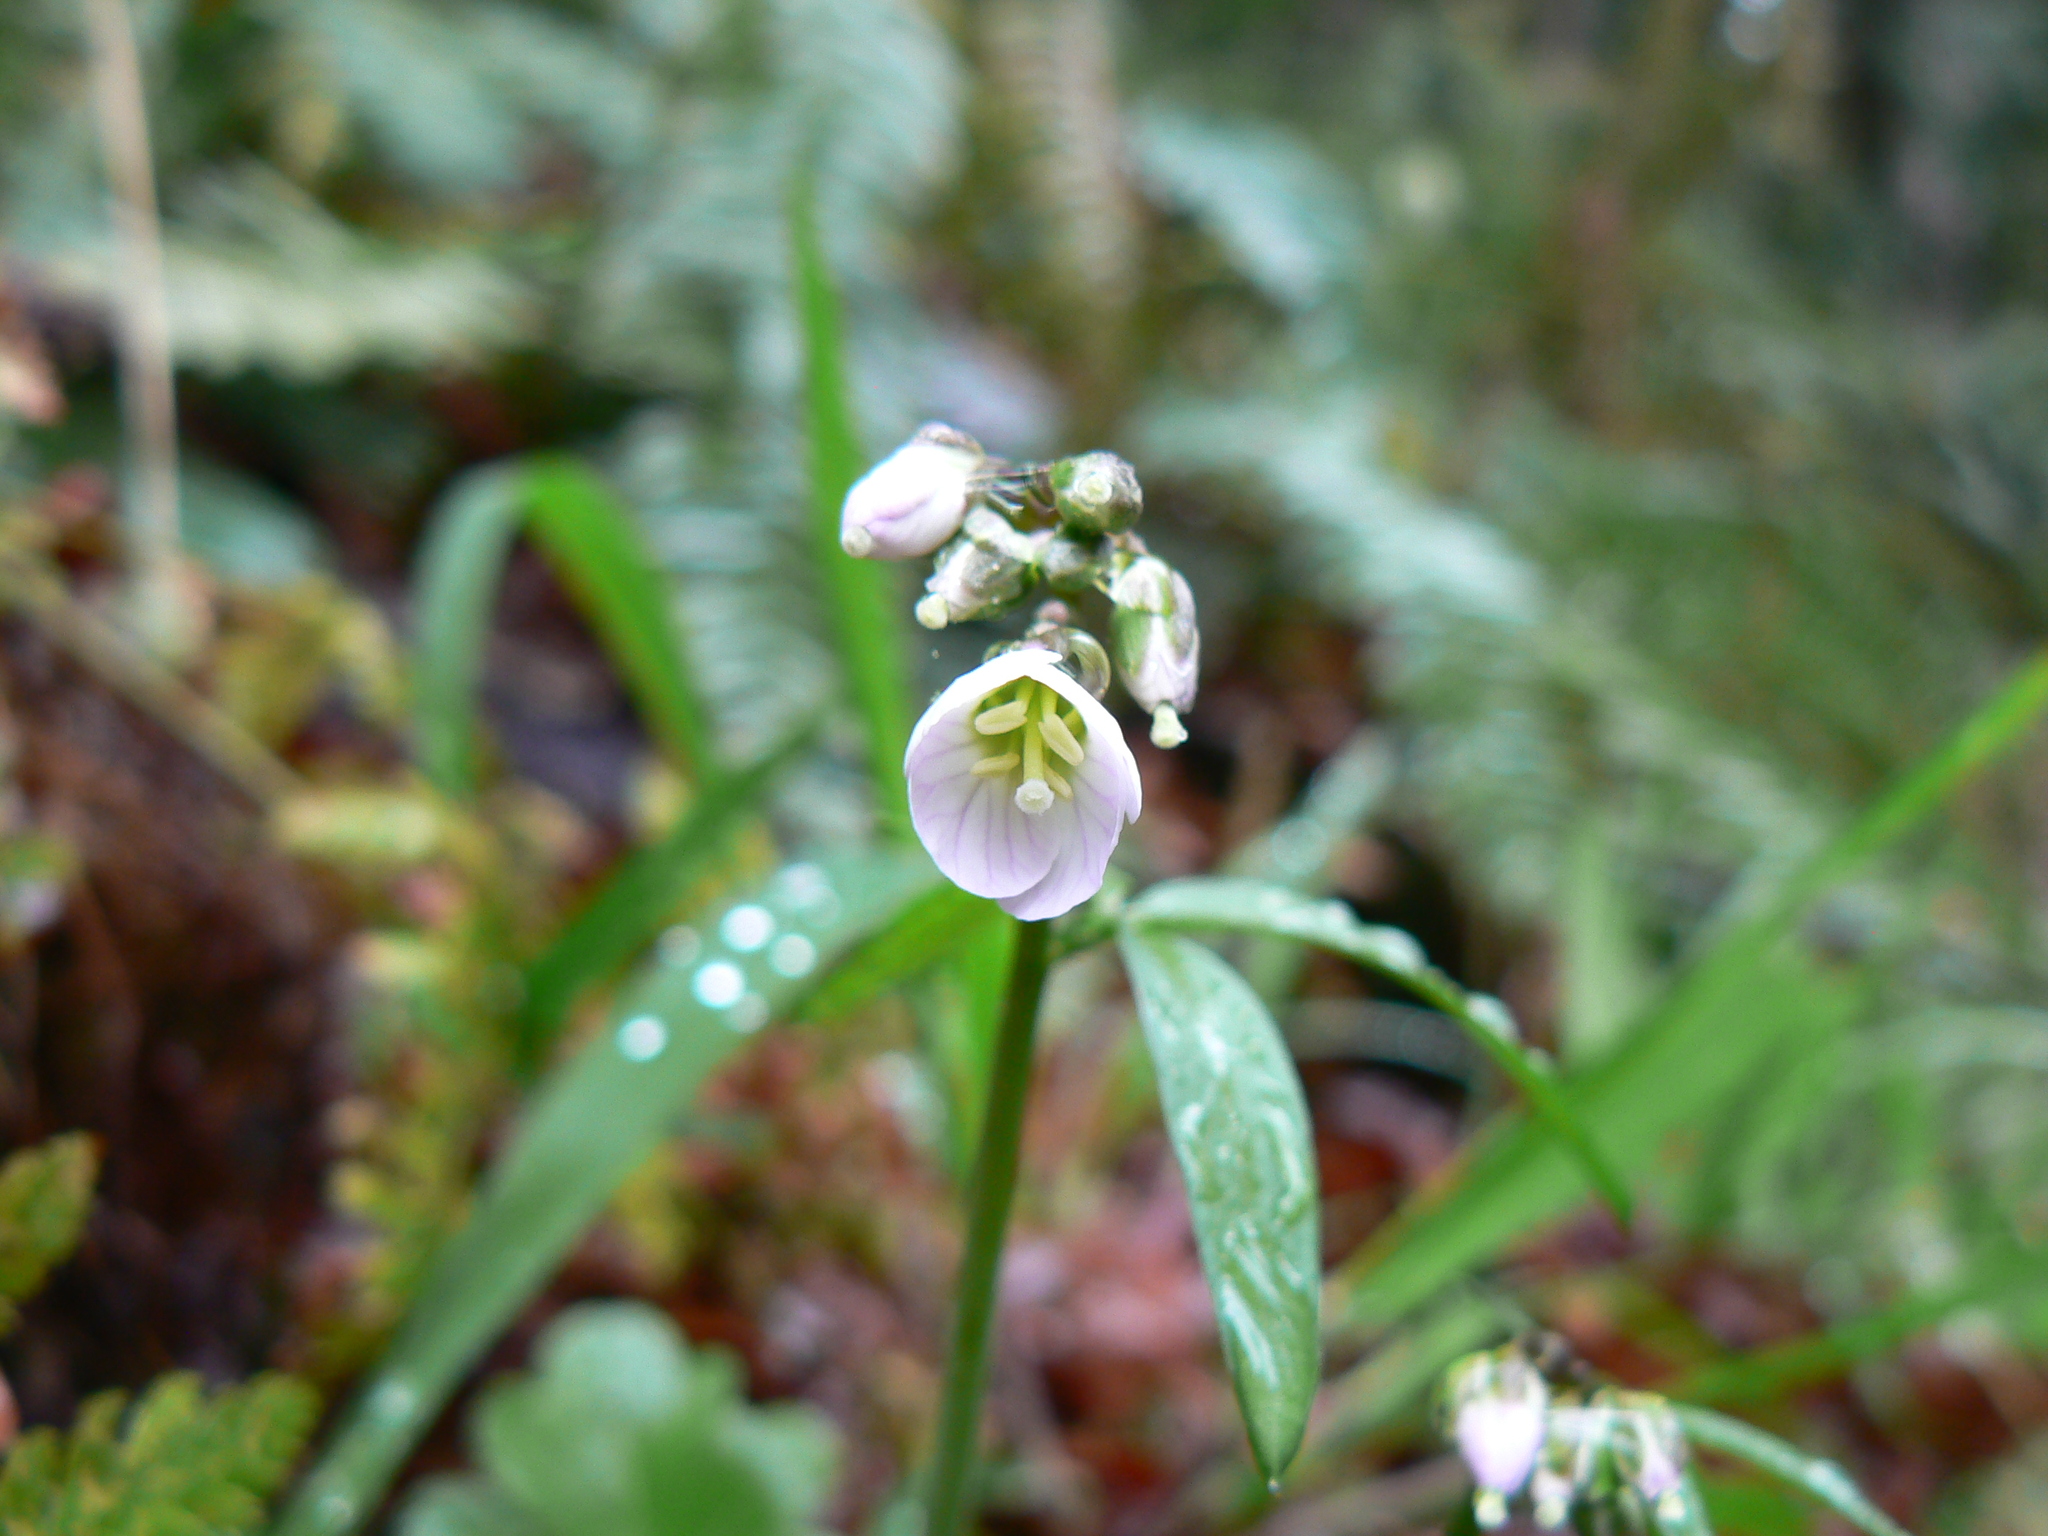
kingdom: Plantae
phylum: Tracheophyta
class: Magnoliopsida
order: Brassicales
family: Brassicaceae
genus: Cardamine
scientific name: Cardamine nuttallii
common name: Nuttall's toothwort
